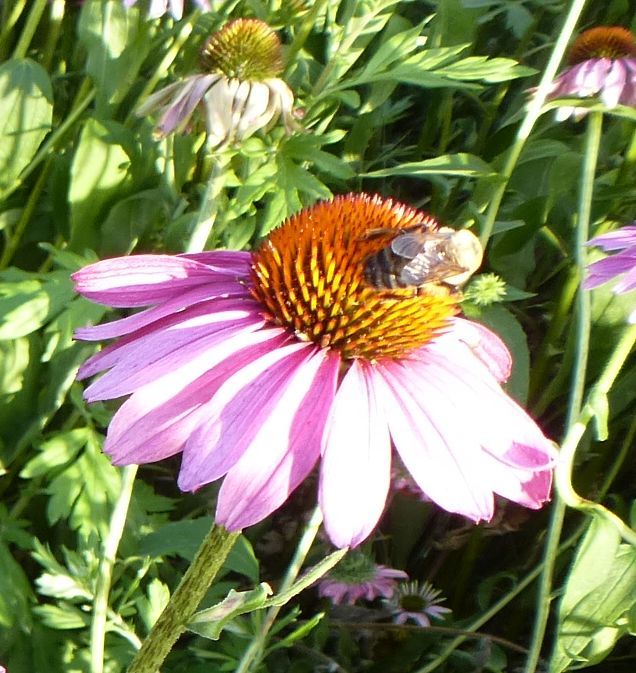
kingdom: Animalia
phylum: Arthropoda
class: Insecta
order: Hymenoptera
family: Apidae
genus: Bombus
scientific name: Bombus griseocollis
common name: Brown-belted bumble bee
